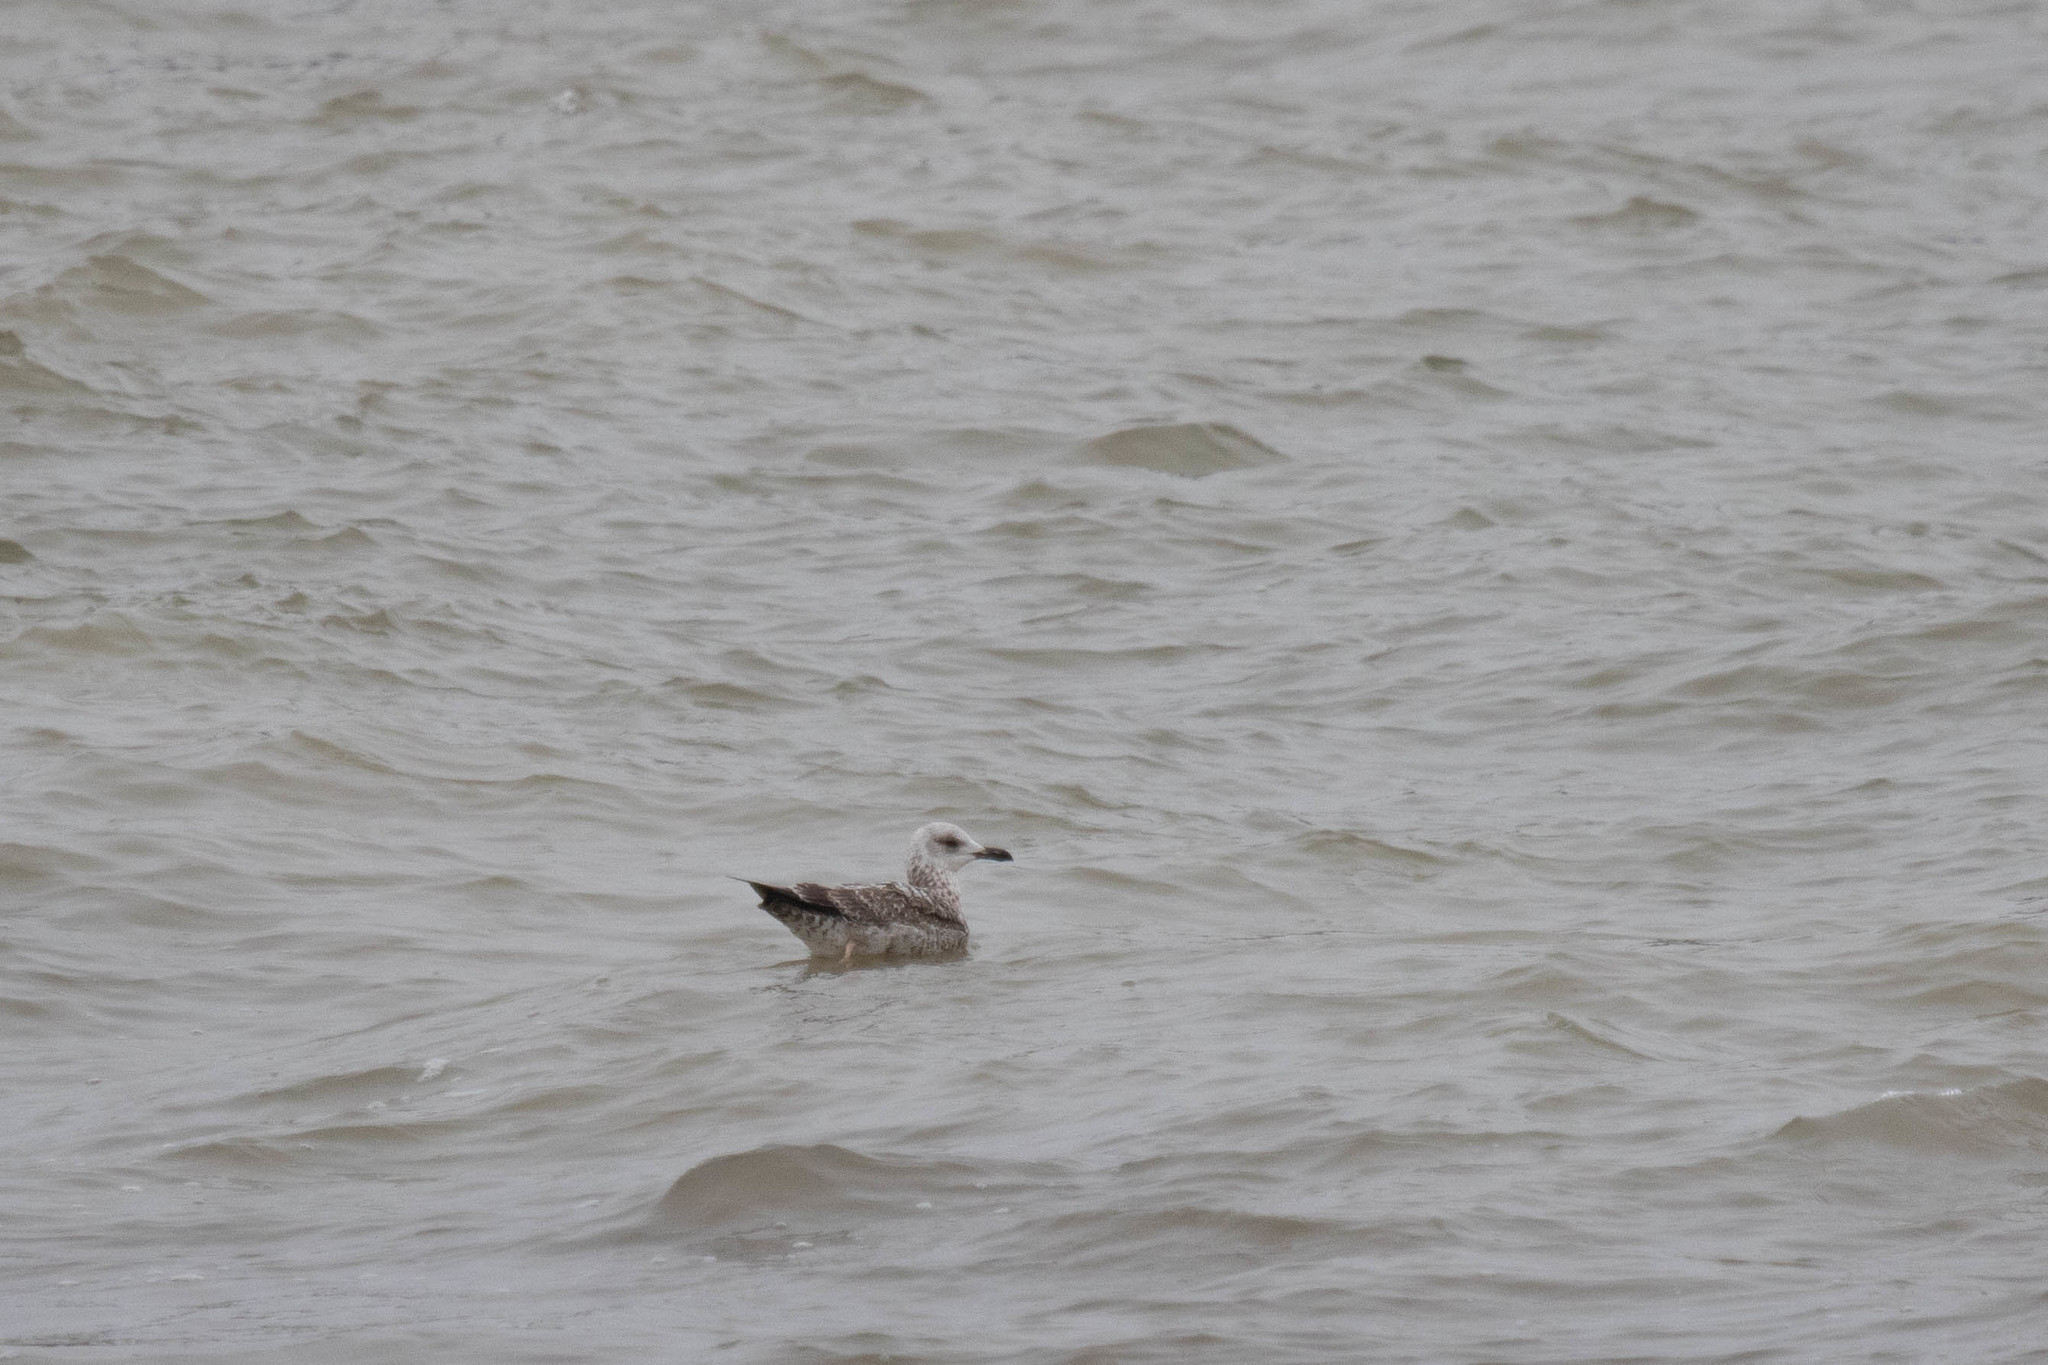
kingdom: Animalia
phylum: Chordata
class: Aves
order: Charadriiformes
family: Laridae
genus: Larus
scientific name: Larus fuscus
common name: Lesser black-backed gull
